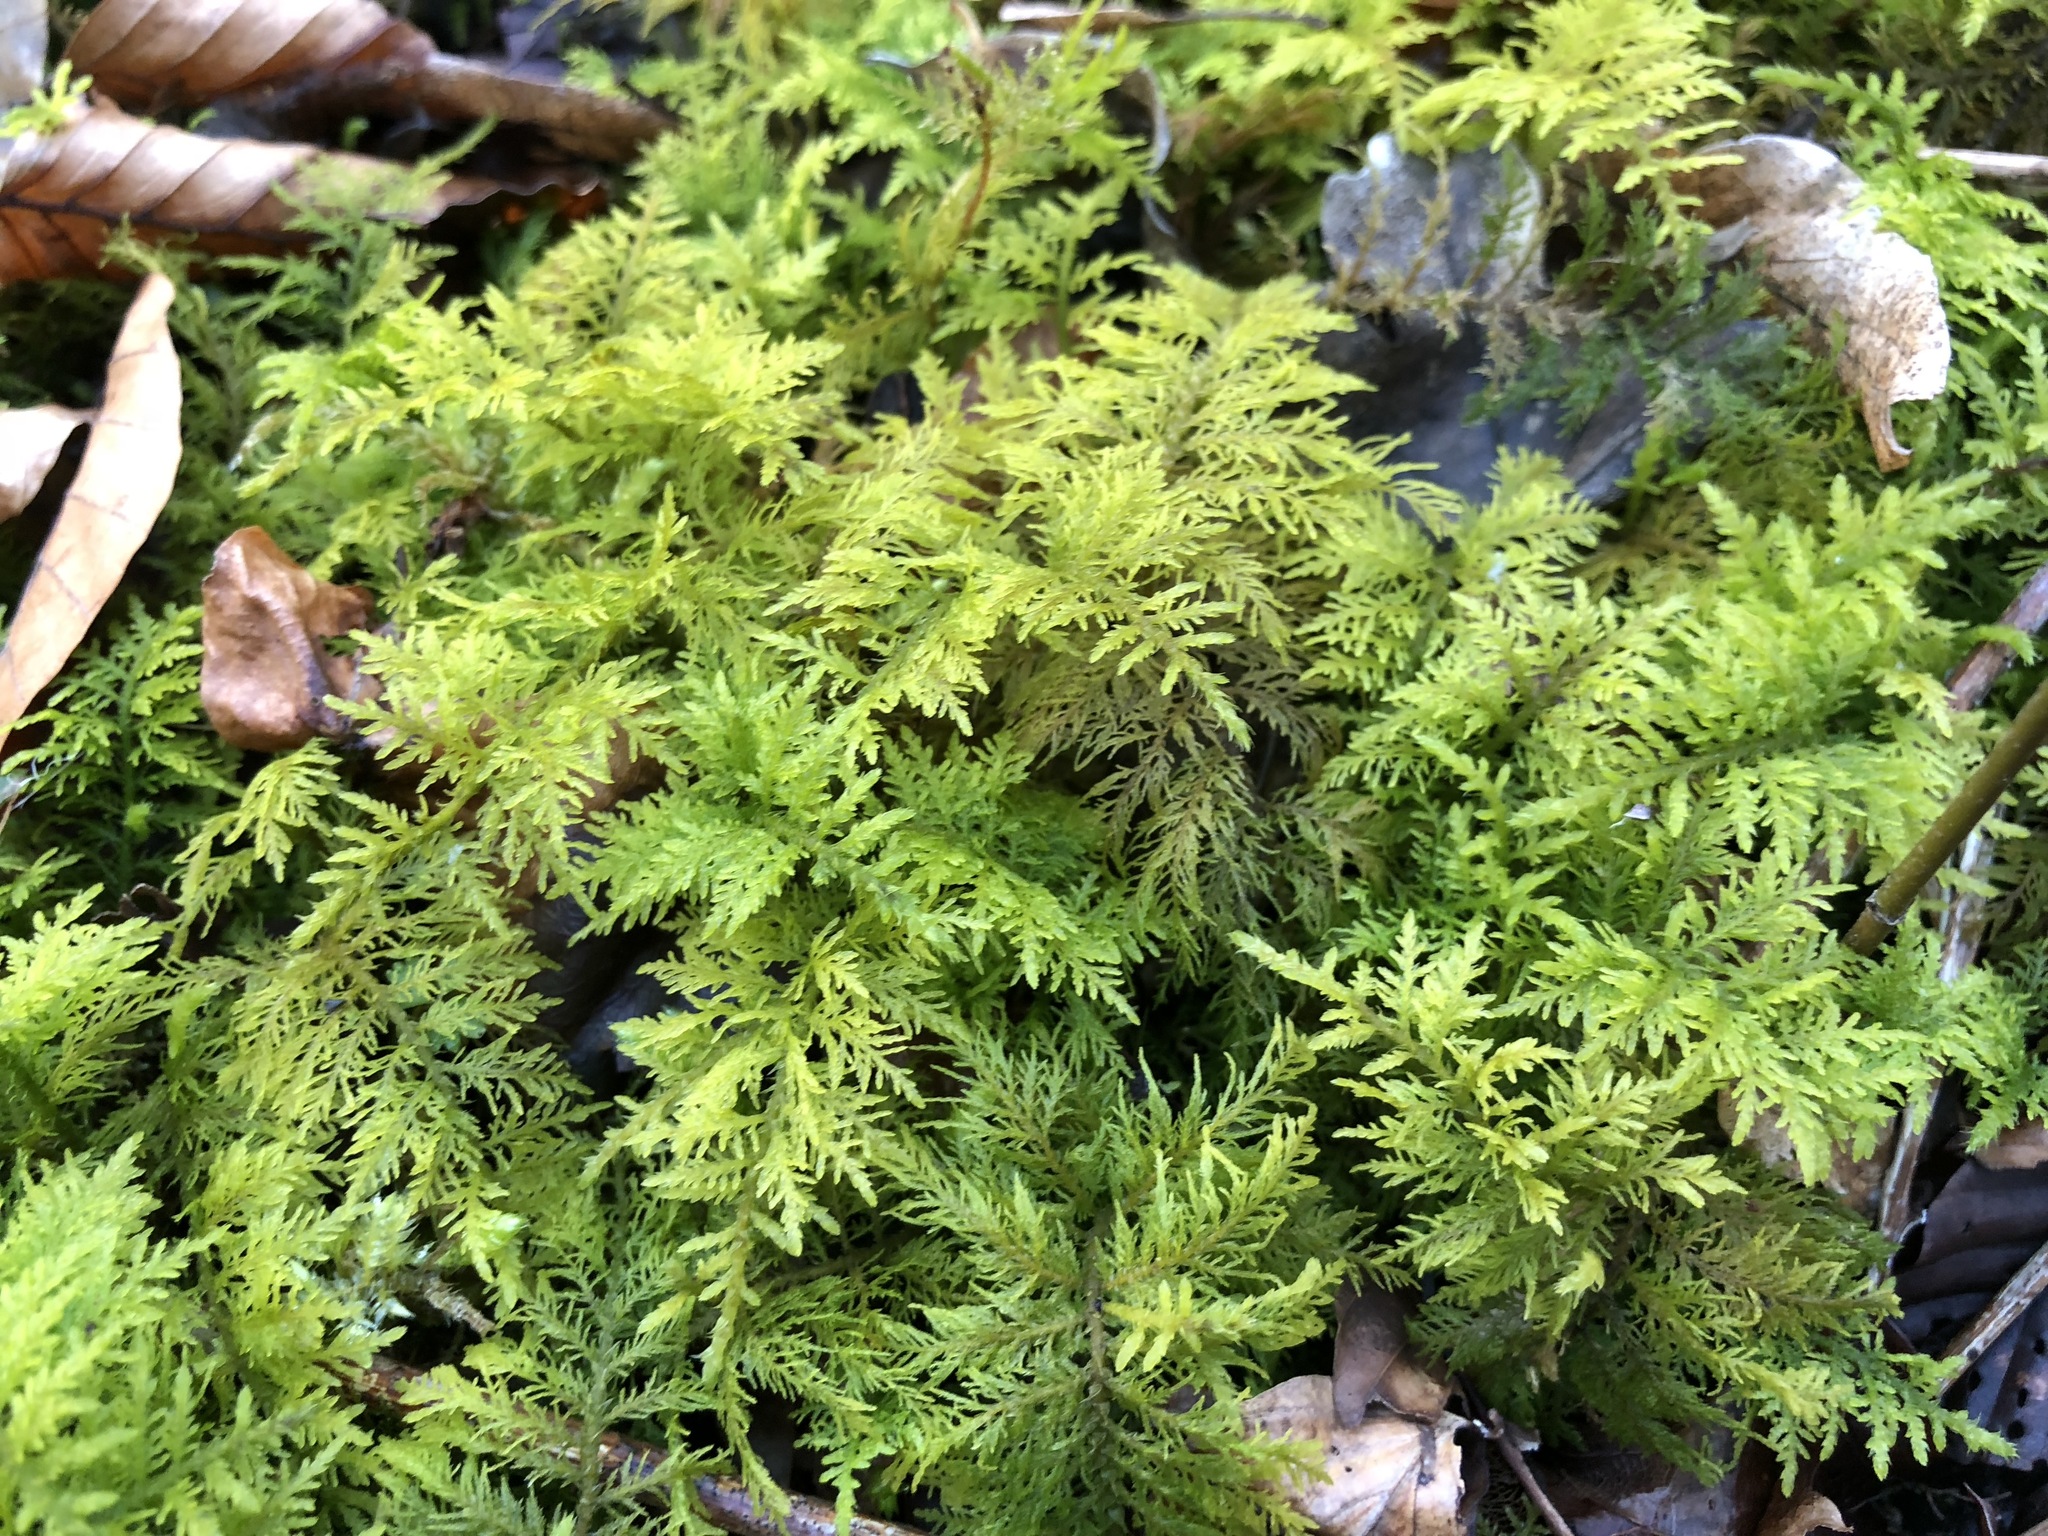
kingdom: Plantae
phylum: Bryophyta
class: Bryopsida
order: Hypnales
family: Thuidiaceae
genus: Thuidium
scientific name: Thuidium tamariscinum
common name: Common tamarisk-moss
